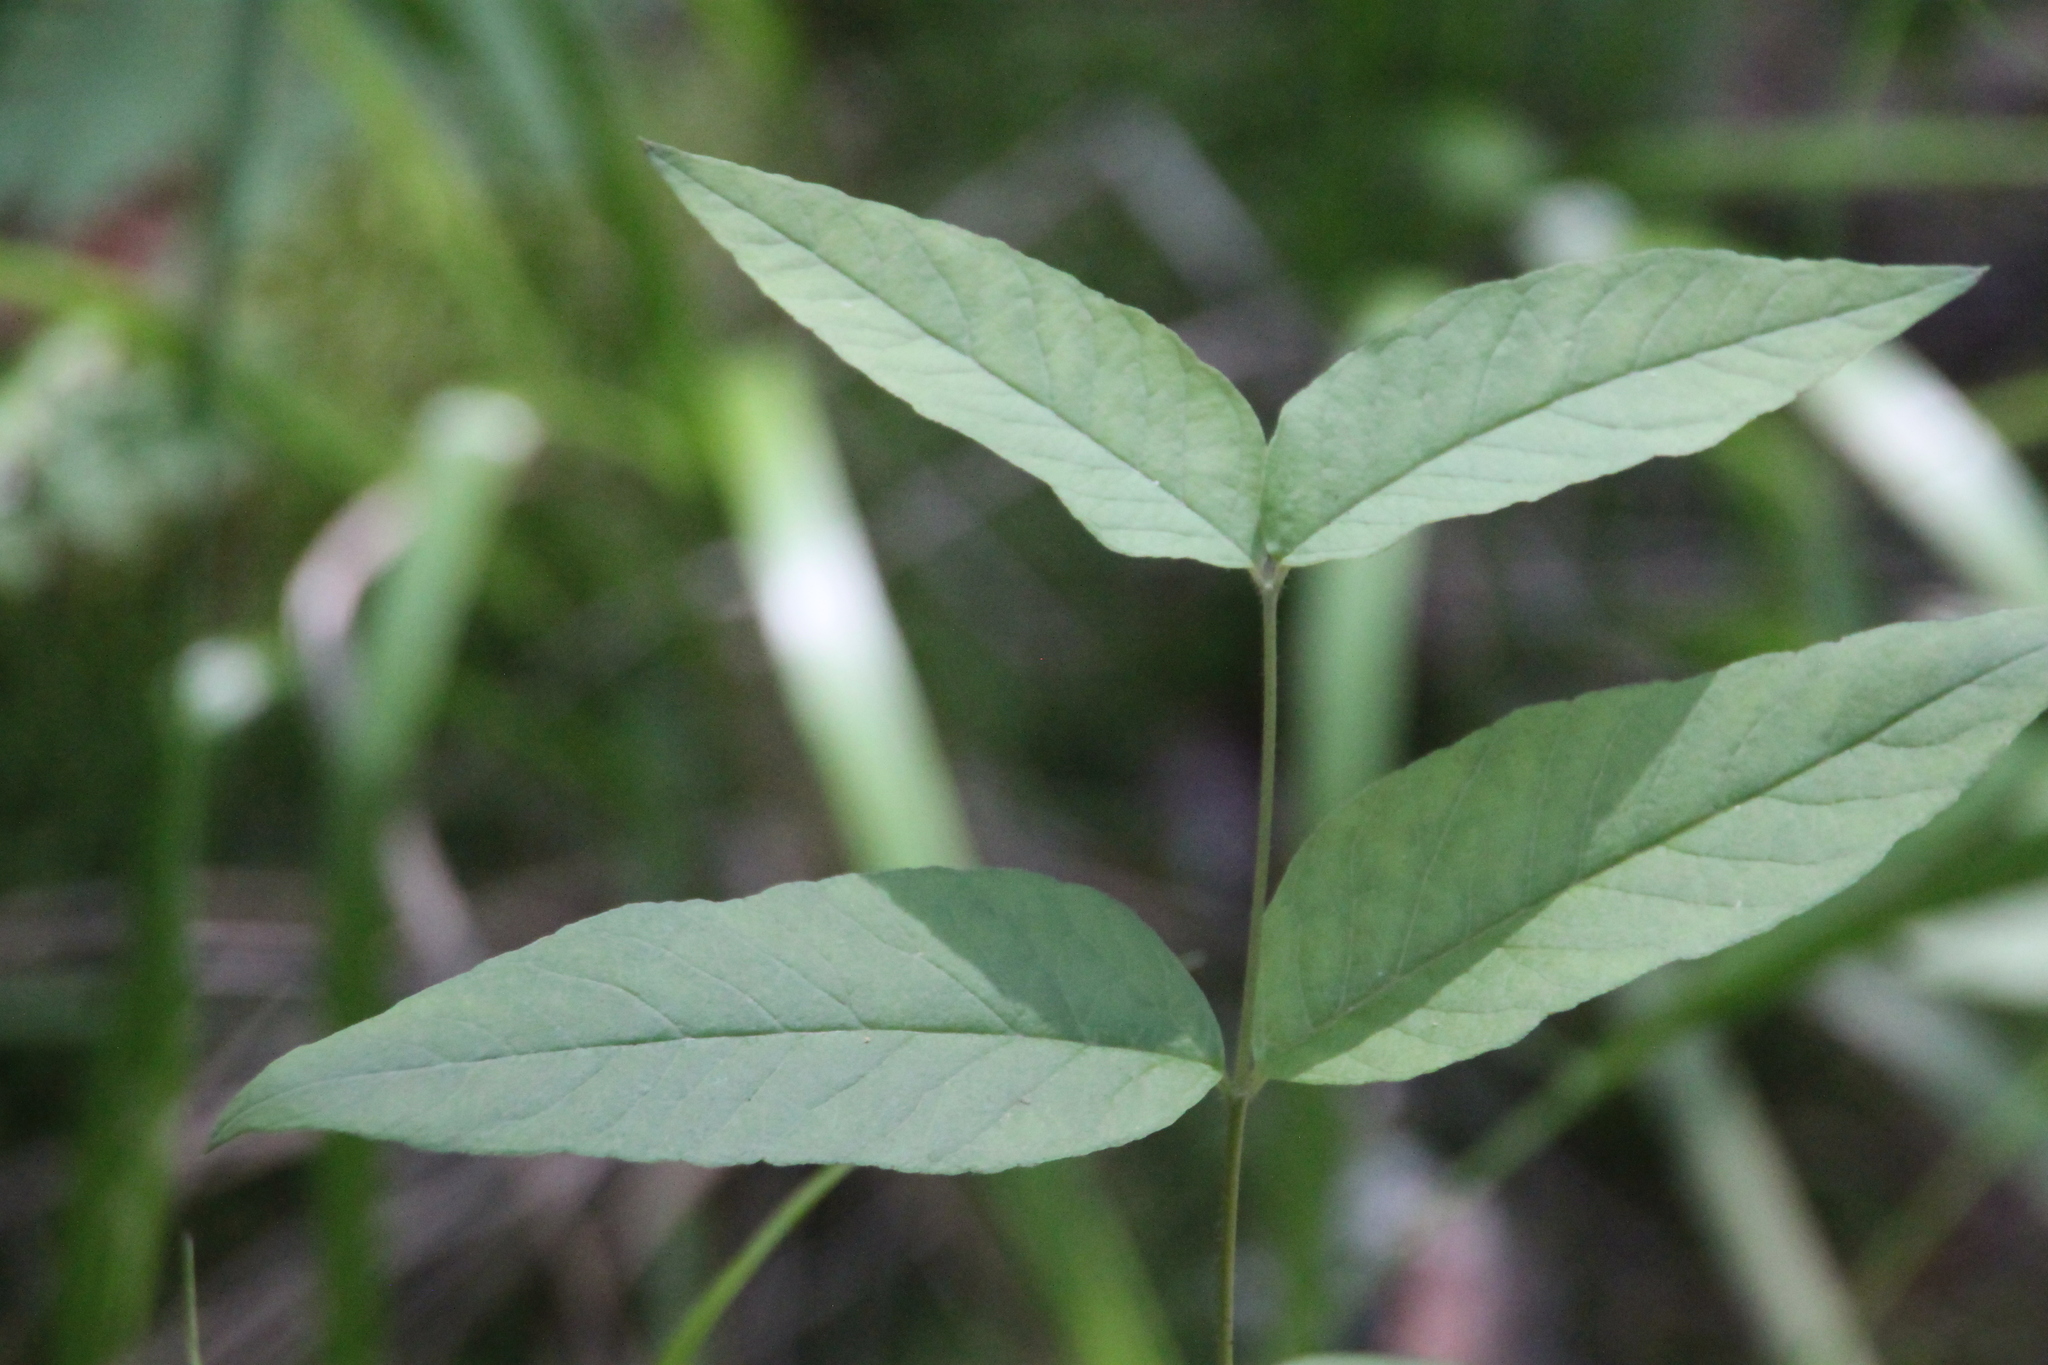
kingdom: Plantae
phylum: Tracheophyta
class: Magnoliopsida
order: Ericales
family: Primulaceae
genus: Lysimachia
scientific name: Lysimachia vulgaris
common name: Yellow loosestrife
